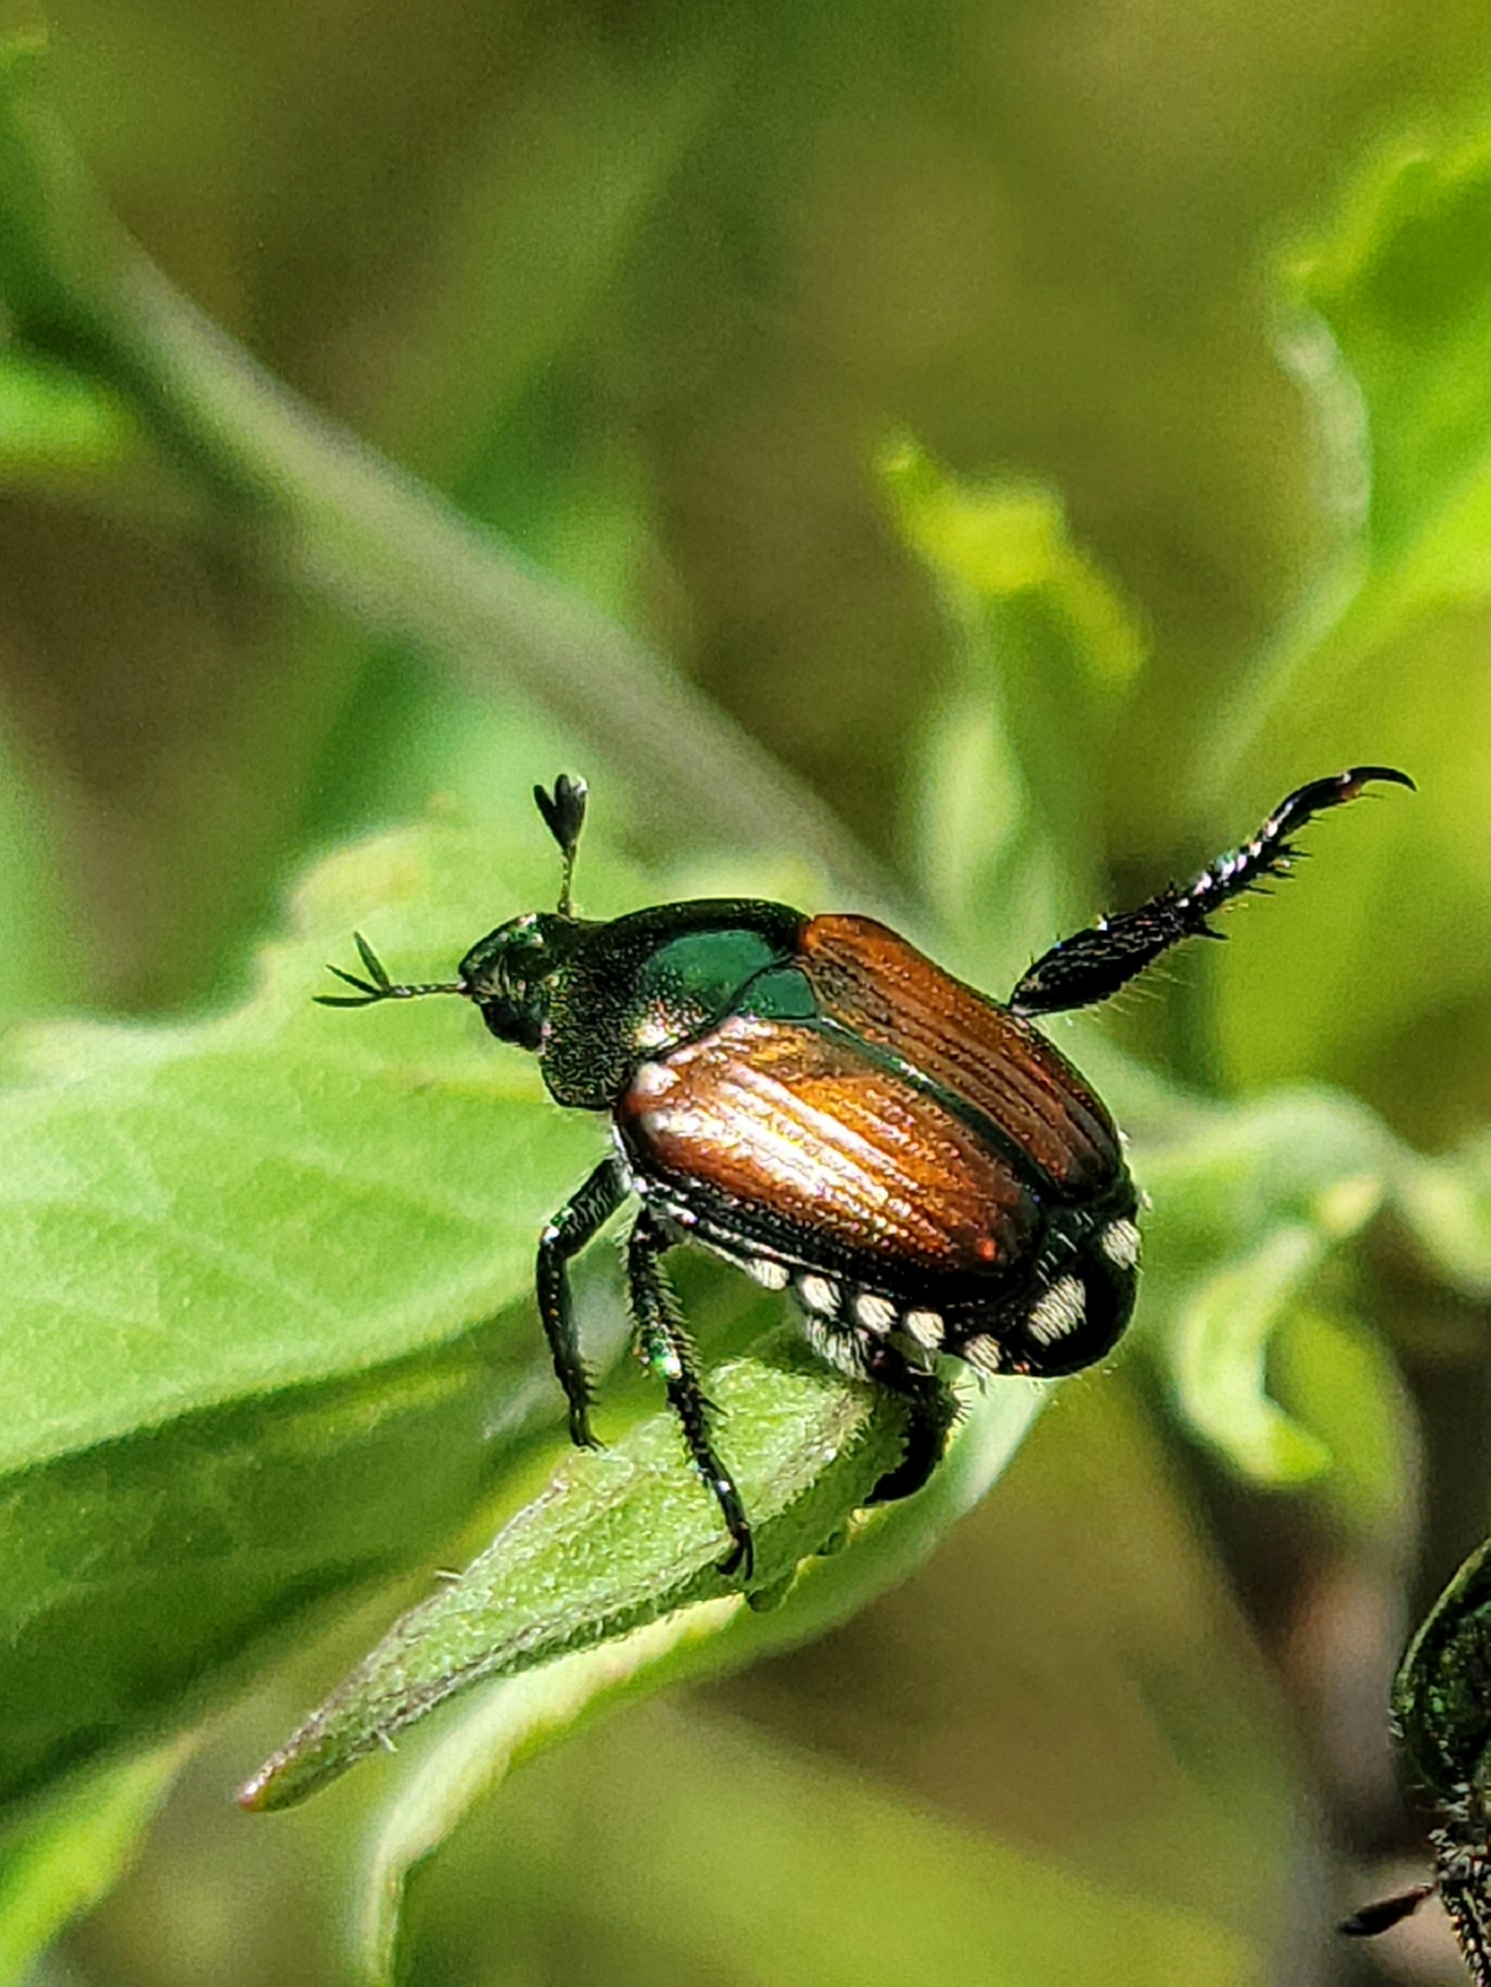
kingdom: Animalia
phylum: Arthropoda
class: Insecta
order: Coleoptera
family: Scarabaeidae
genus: Popillia
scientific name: Popillia japonica
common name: Japanese beetle
